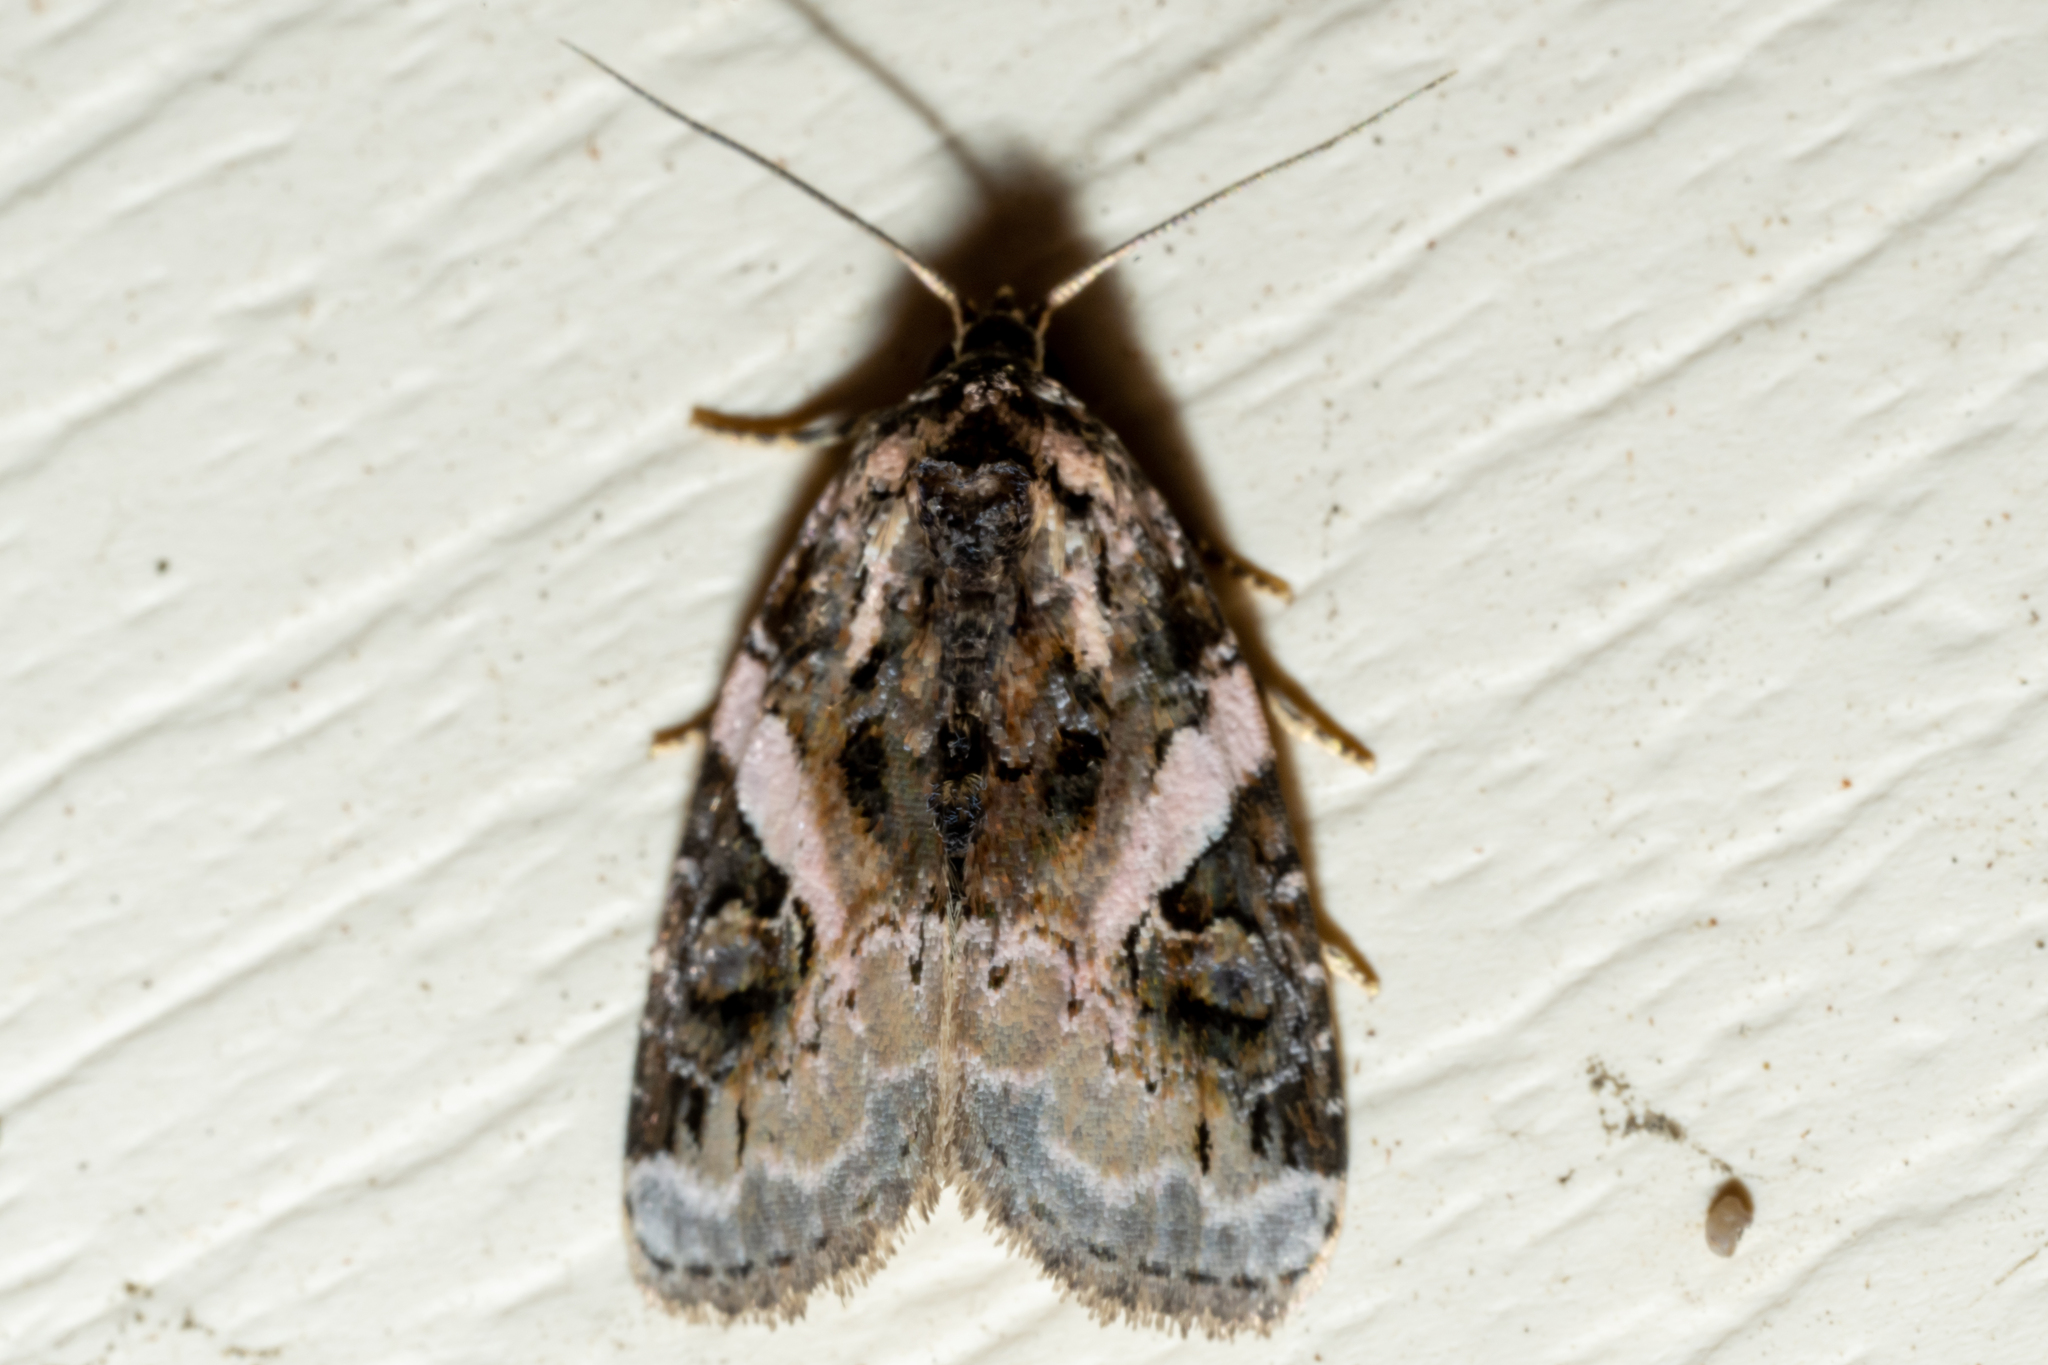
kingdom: Animalia
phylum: Arthropoda
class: Insecta
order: Lepidoptera
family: Noctuidae
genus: Pseudeustrotia
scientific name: Pseudeustrotia carneola
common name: Pink-barred lithacodia moth
